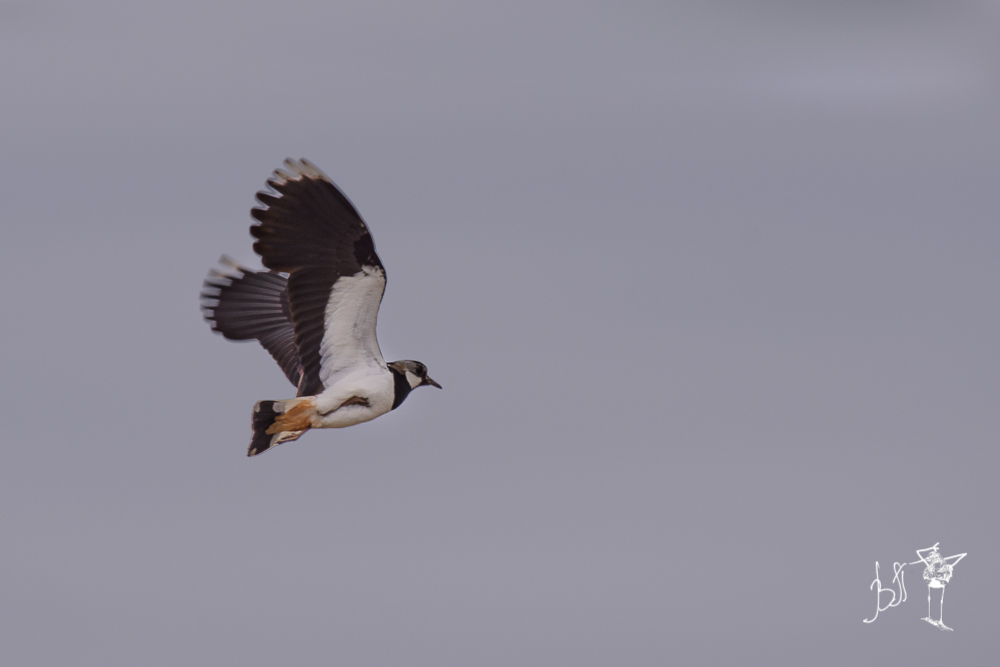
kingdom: Animalia
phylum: Chordata
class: Aves
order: Charadriiformes
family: Charadriidae
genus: Vanellus
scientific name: Vanellus vanellus
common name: Northern lapwing
